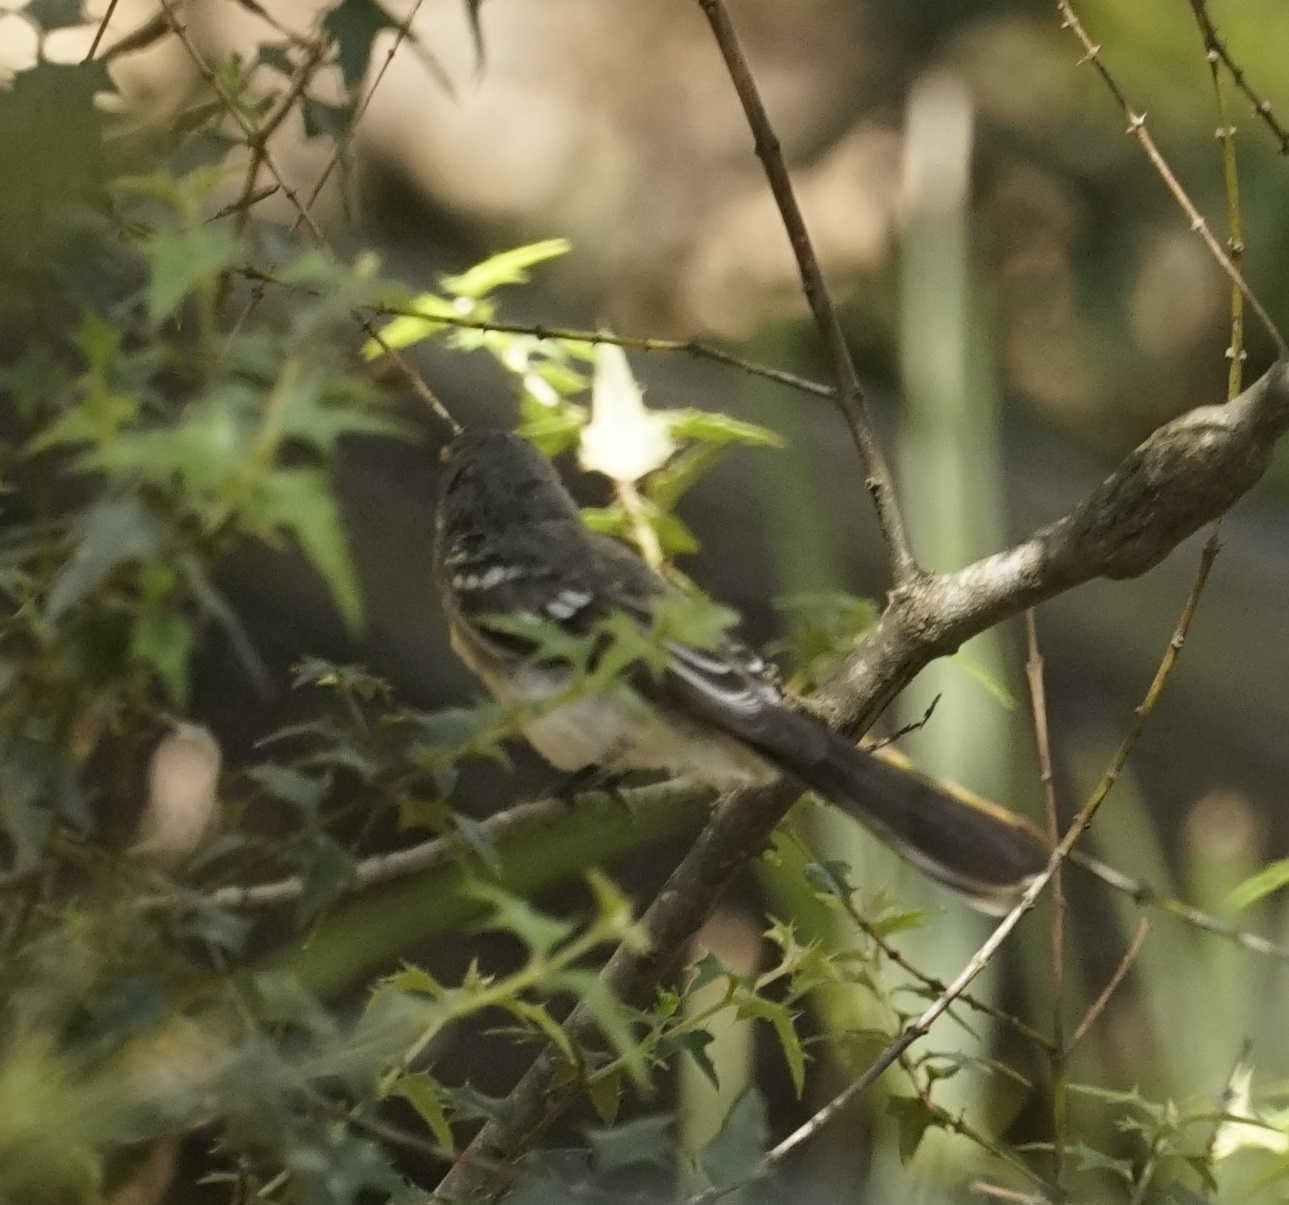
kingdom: Animalia
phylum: Chordata
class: Aves
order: Passeriformes
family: Rhipiduridae
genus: Rhipidura
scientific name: Rhipidura albiscapa
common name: Grey fantail
